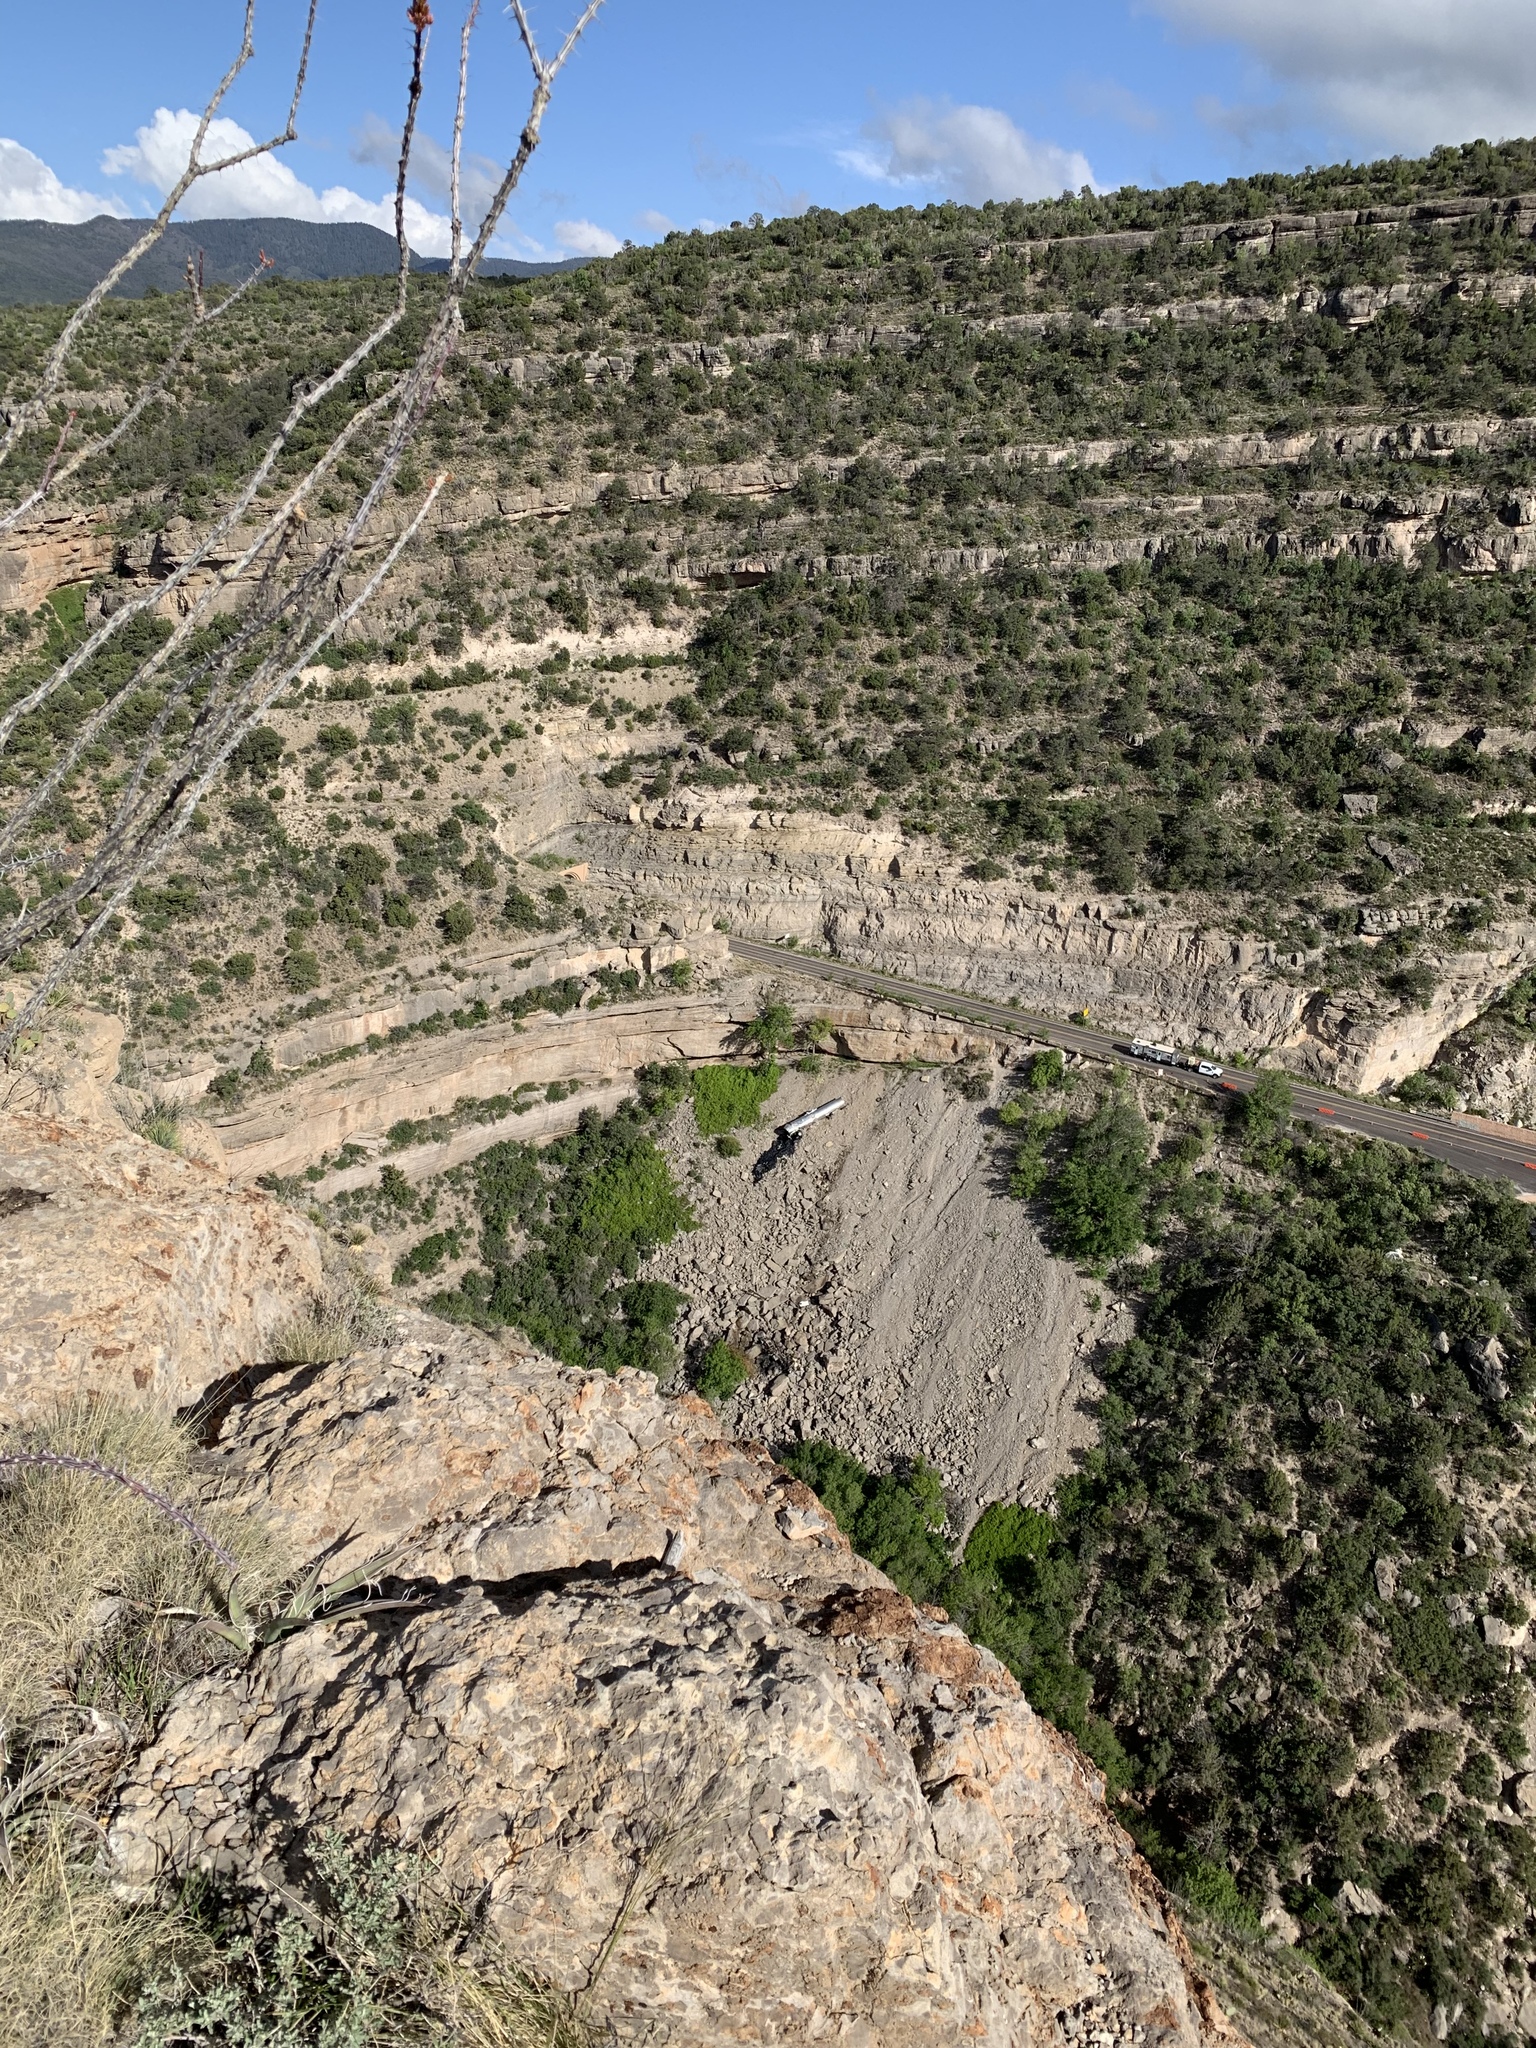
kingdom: Plantae
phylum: Tracheophyta
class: Magnoliopsida
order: Ericales
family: Fouquieriaceae
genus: Fouquieria
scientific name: Fouquieria splendens
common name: Vine-cactus
